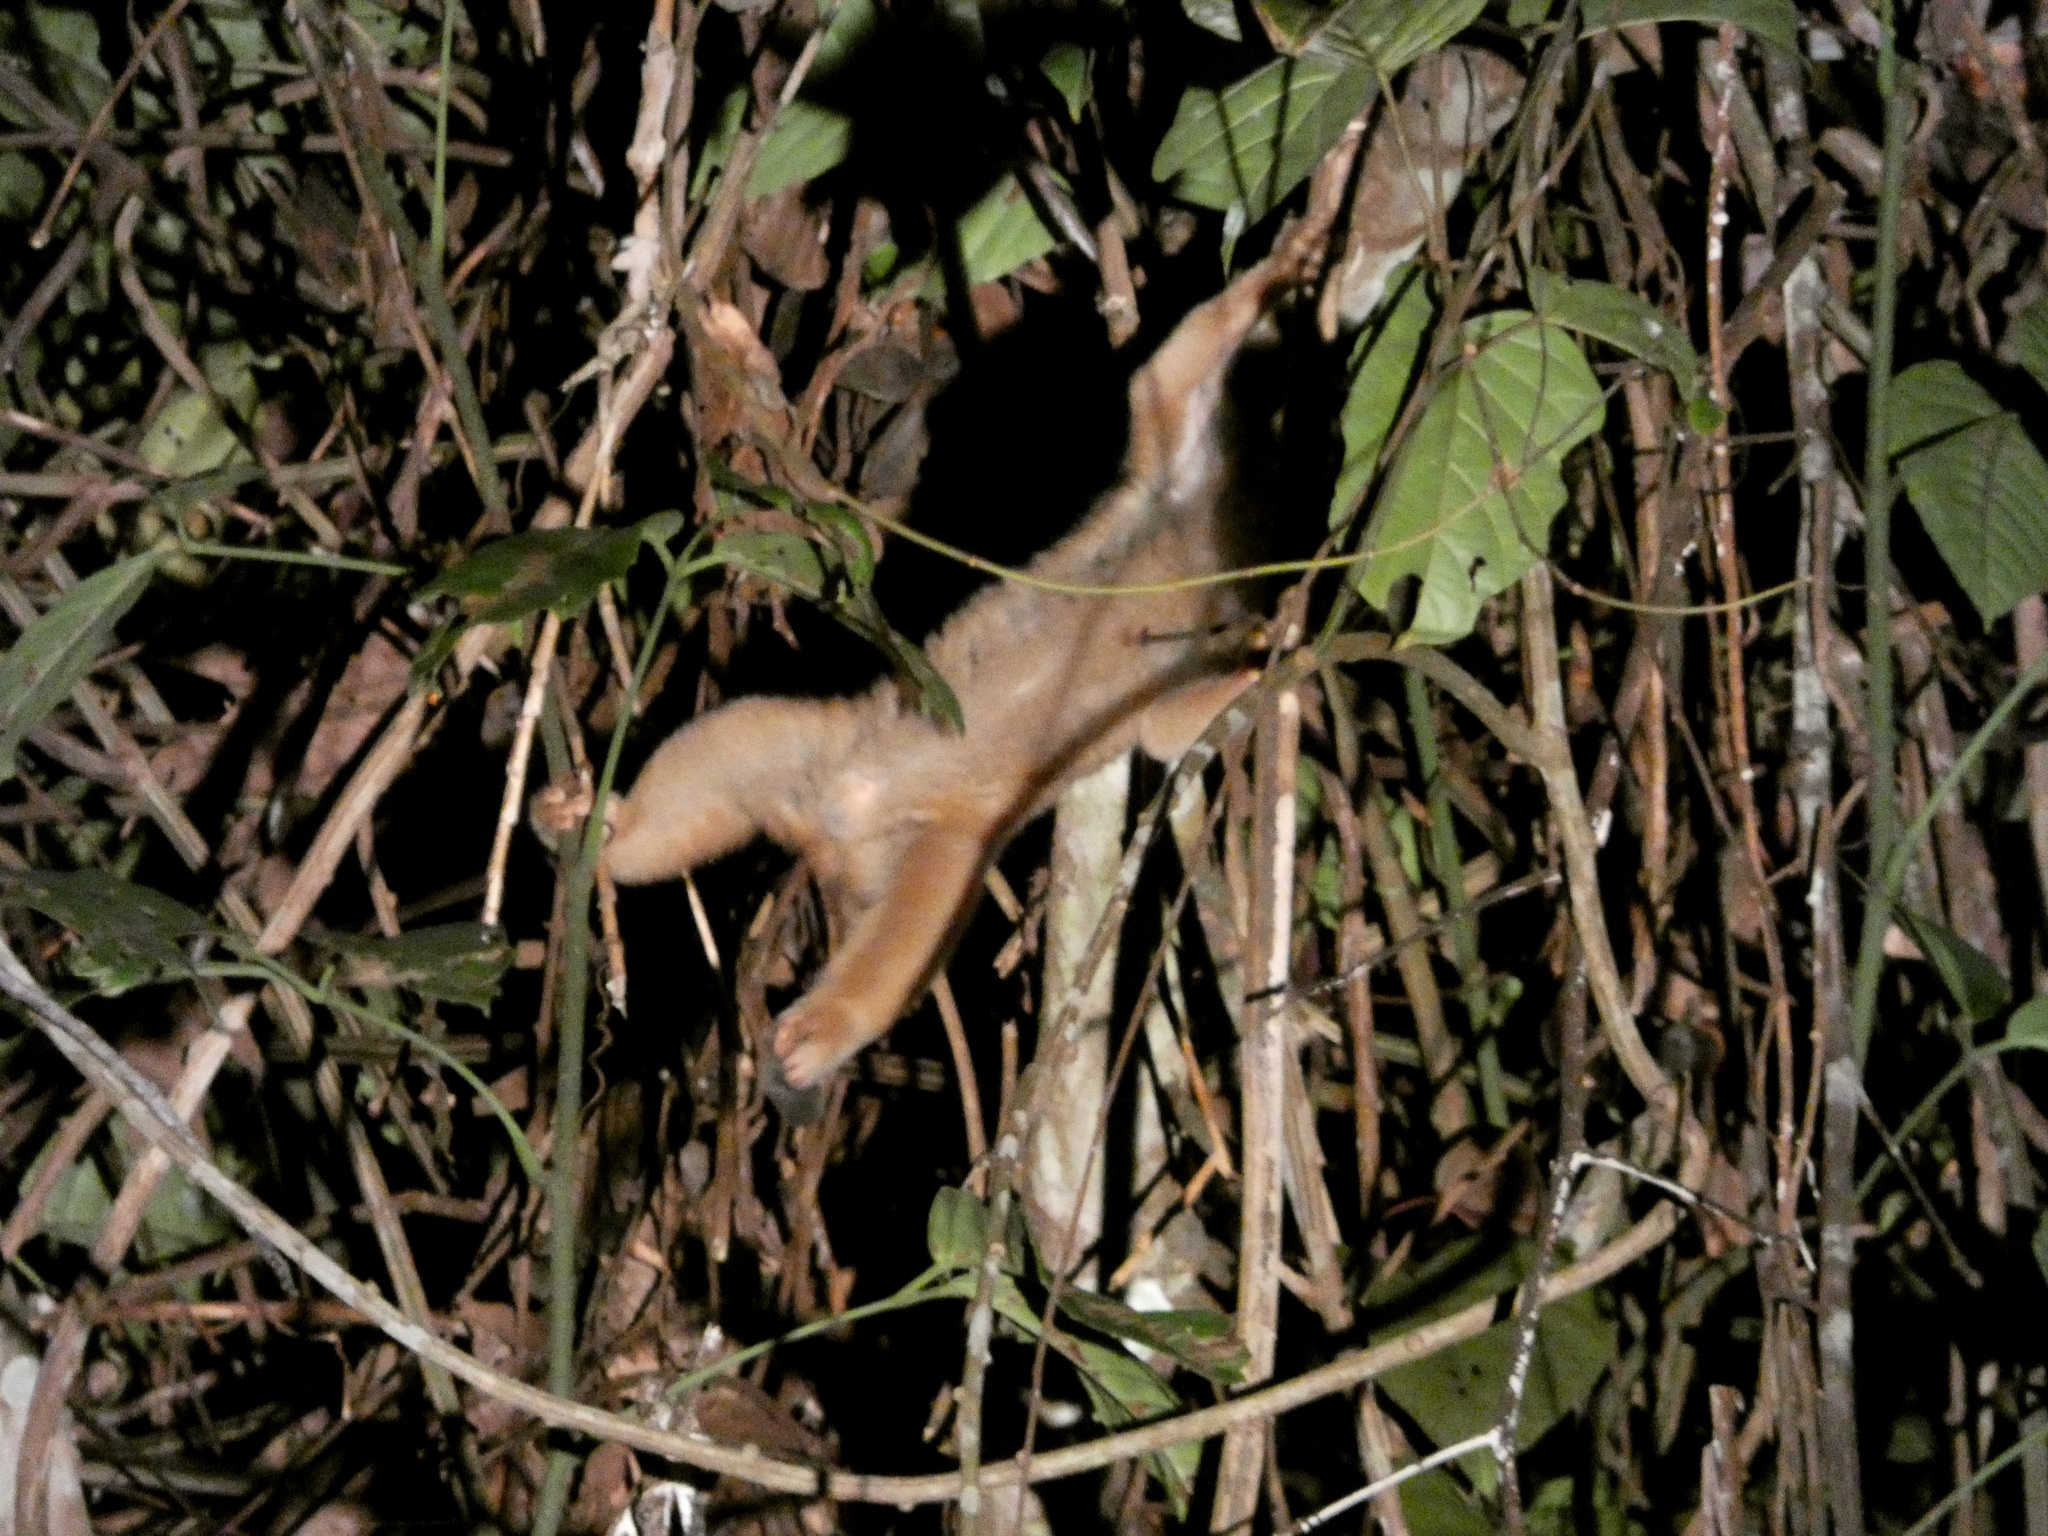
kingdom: Animalia
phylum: Chordata
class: Mammalia
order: Primates
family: Lorisidae
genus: Nycticebus
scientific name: Nycticebus menagensis
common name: Philippine slow loris
